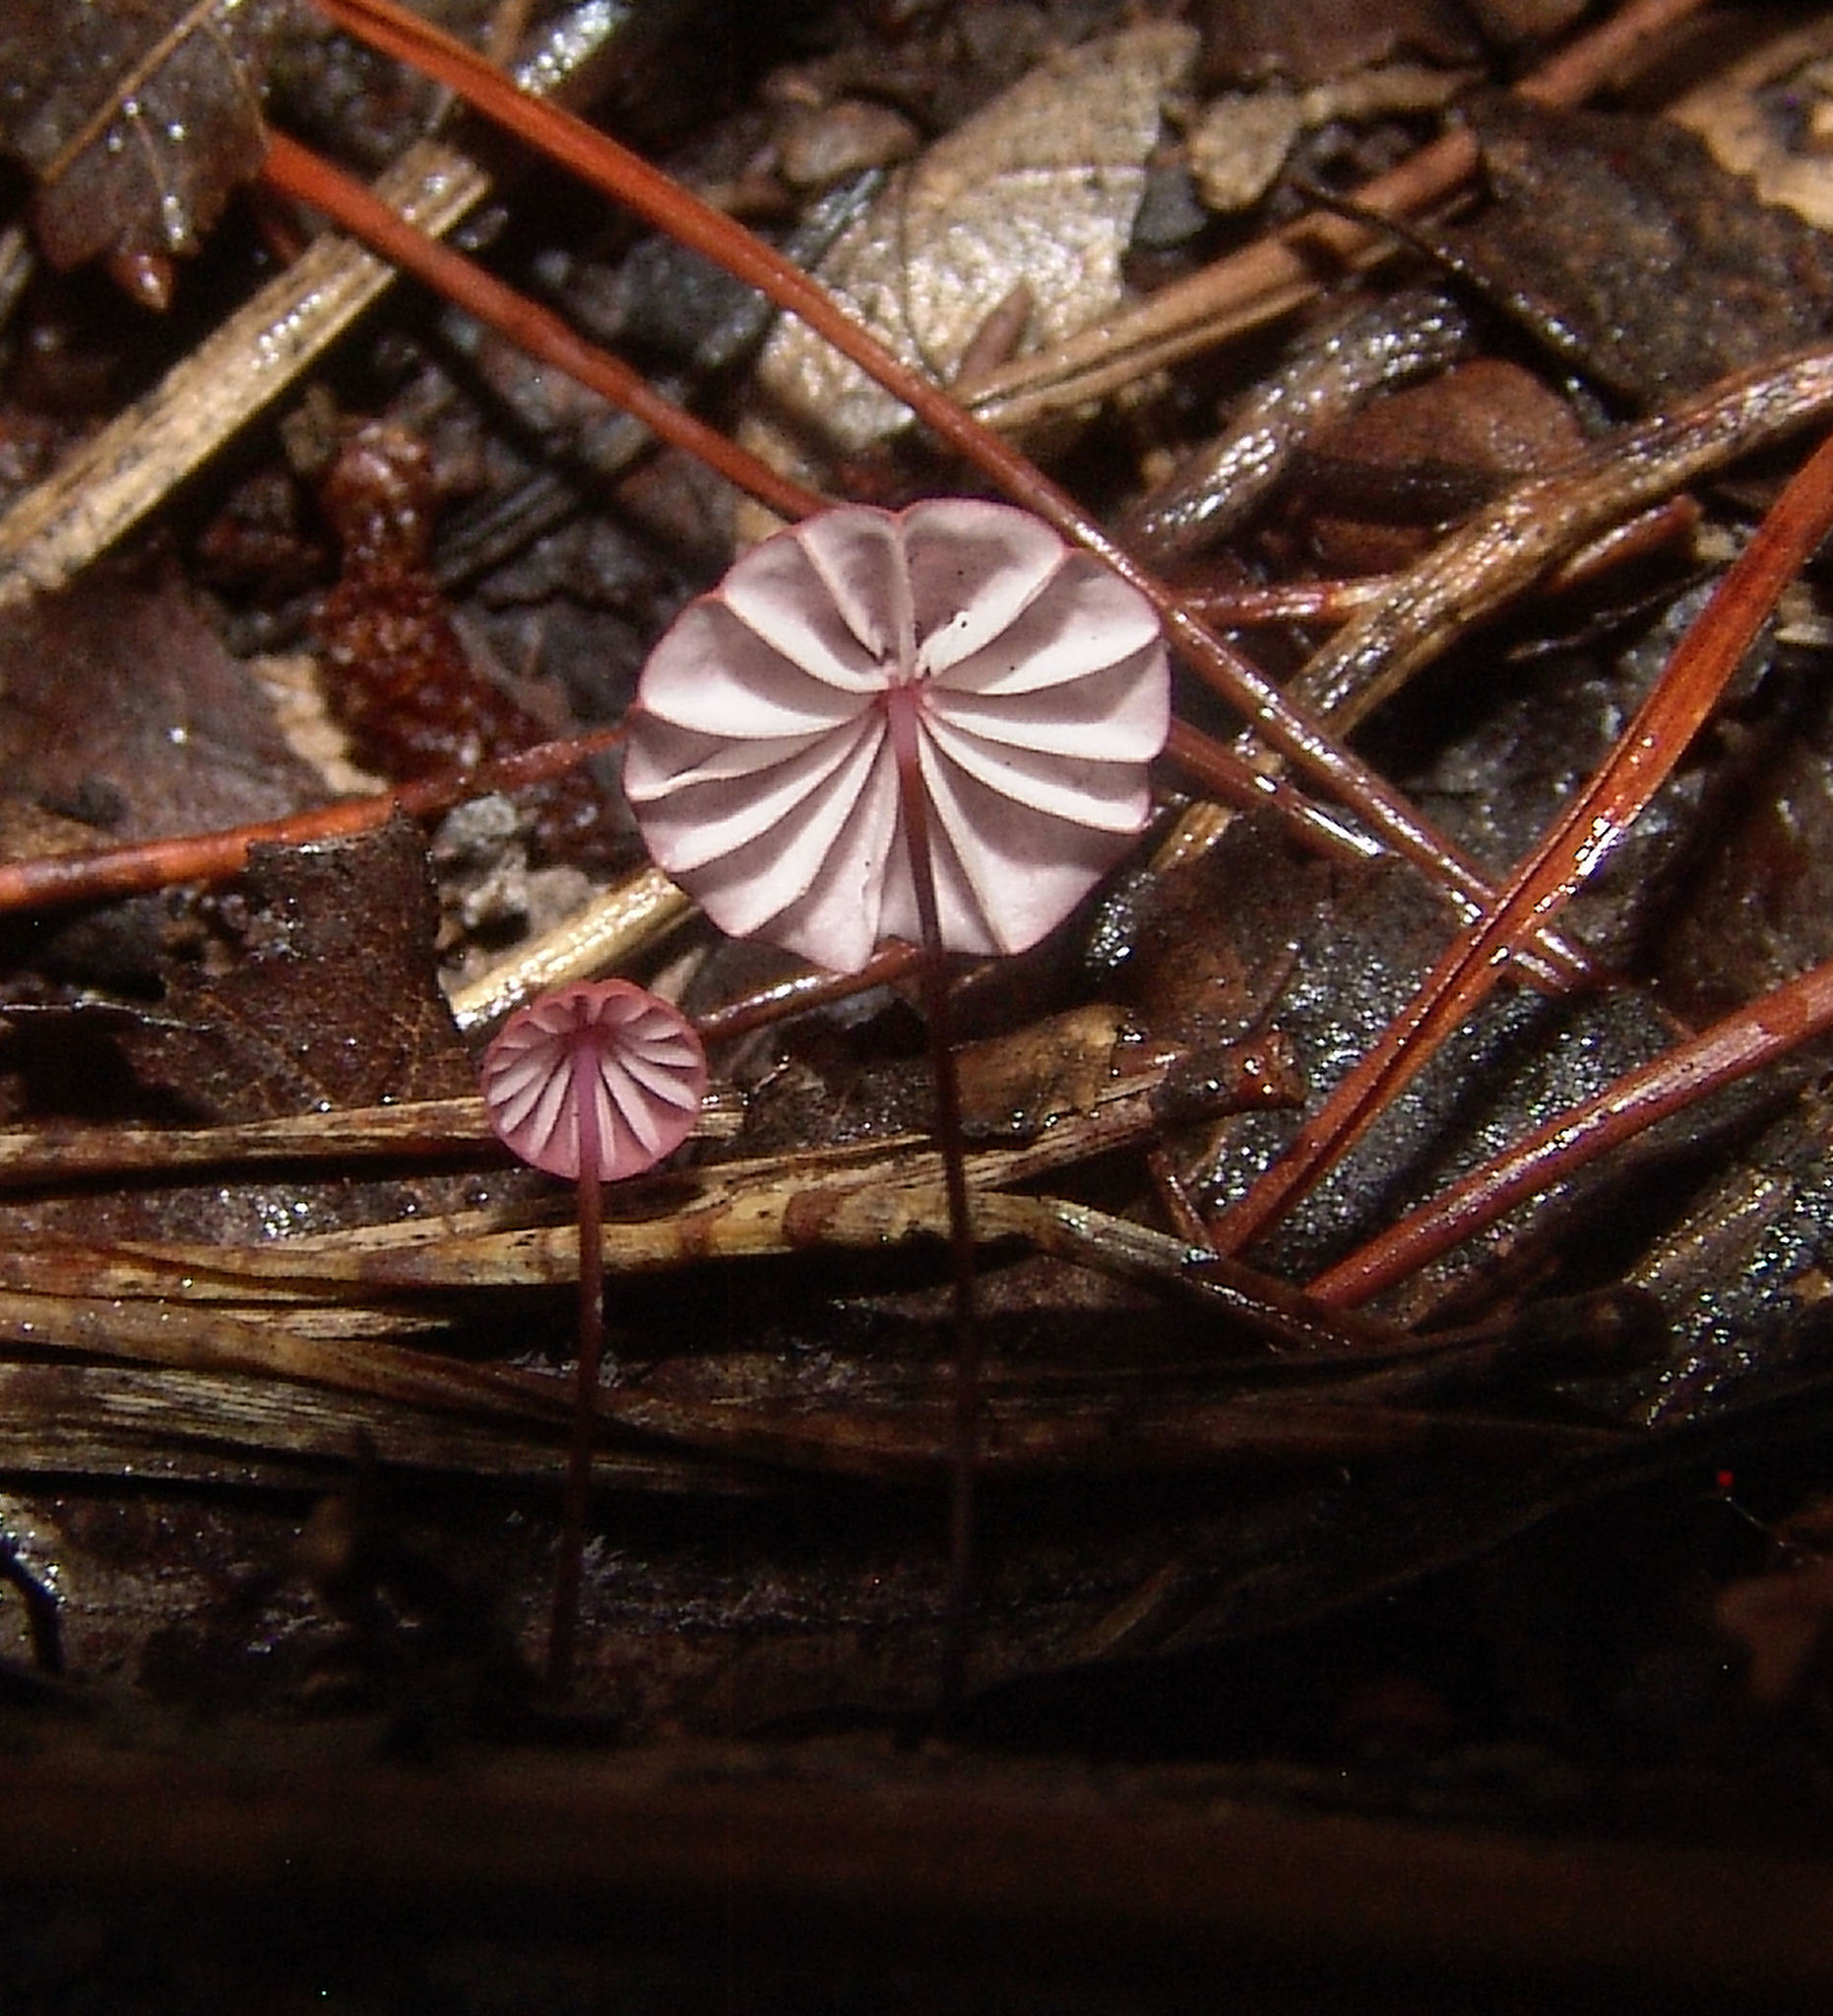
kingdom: Fungi
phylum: Basidiomycota
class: Agaricomycetes
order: Agaricales
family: Marasmiaceae
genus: Marasmius
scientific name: Marasmius haematocephalus
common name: Purple pinwheel
